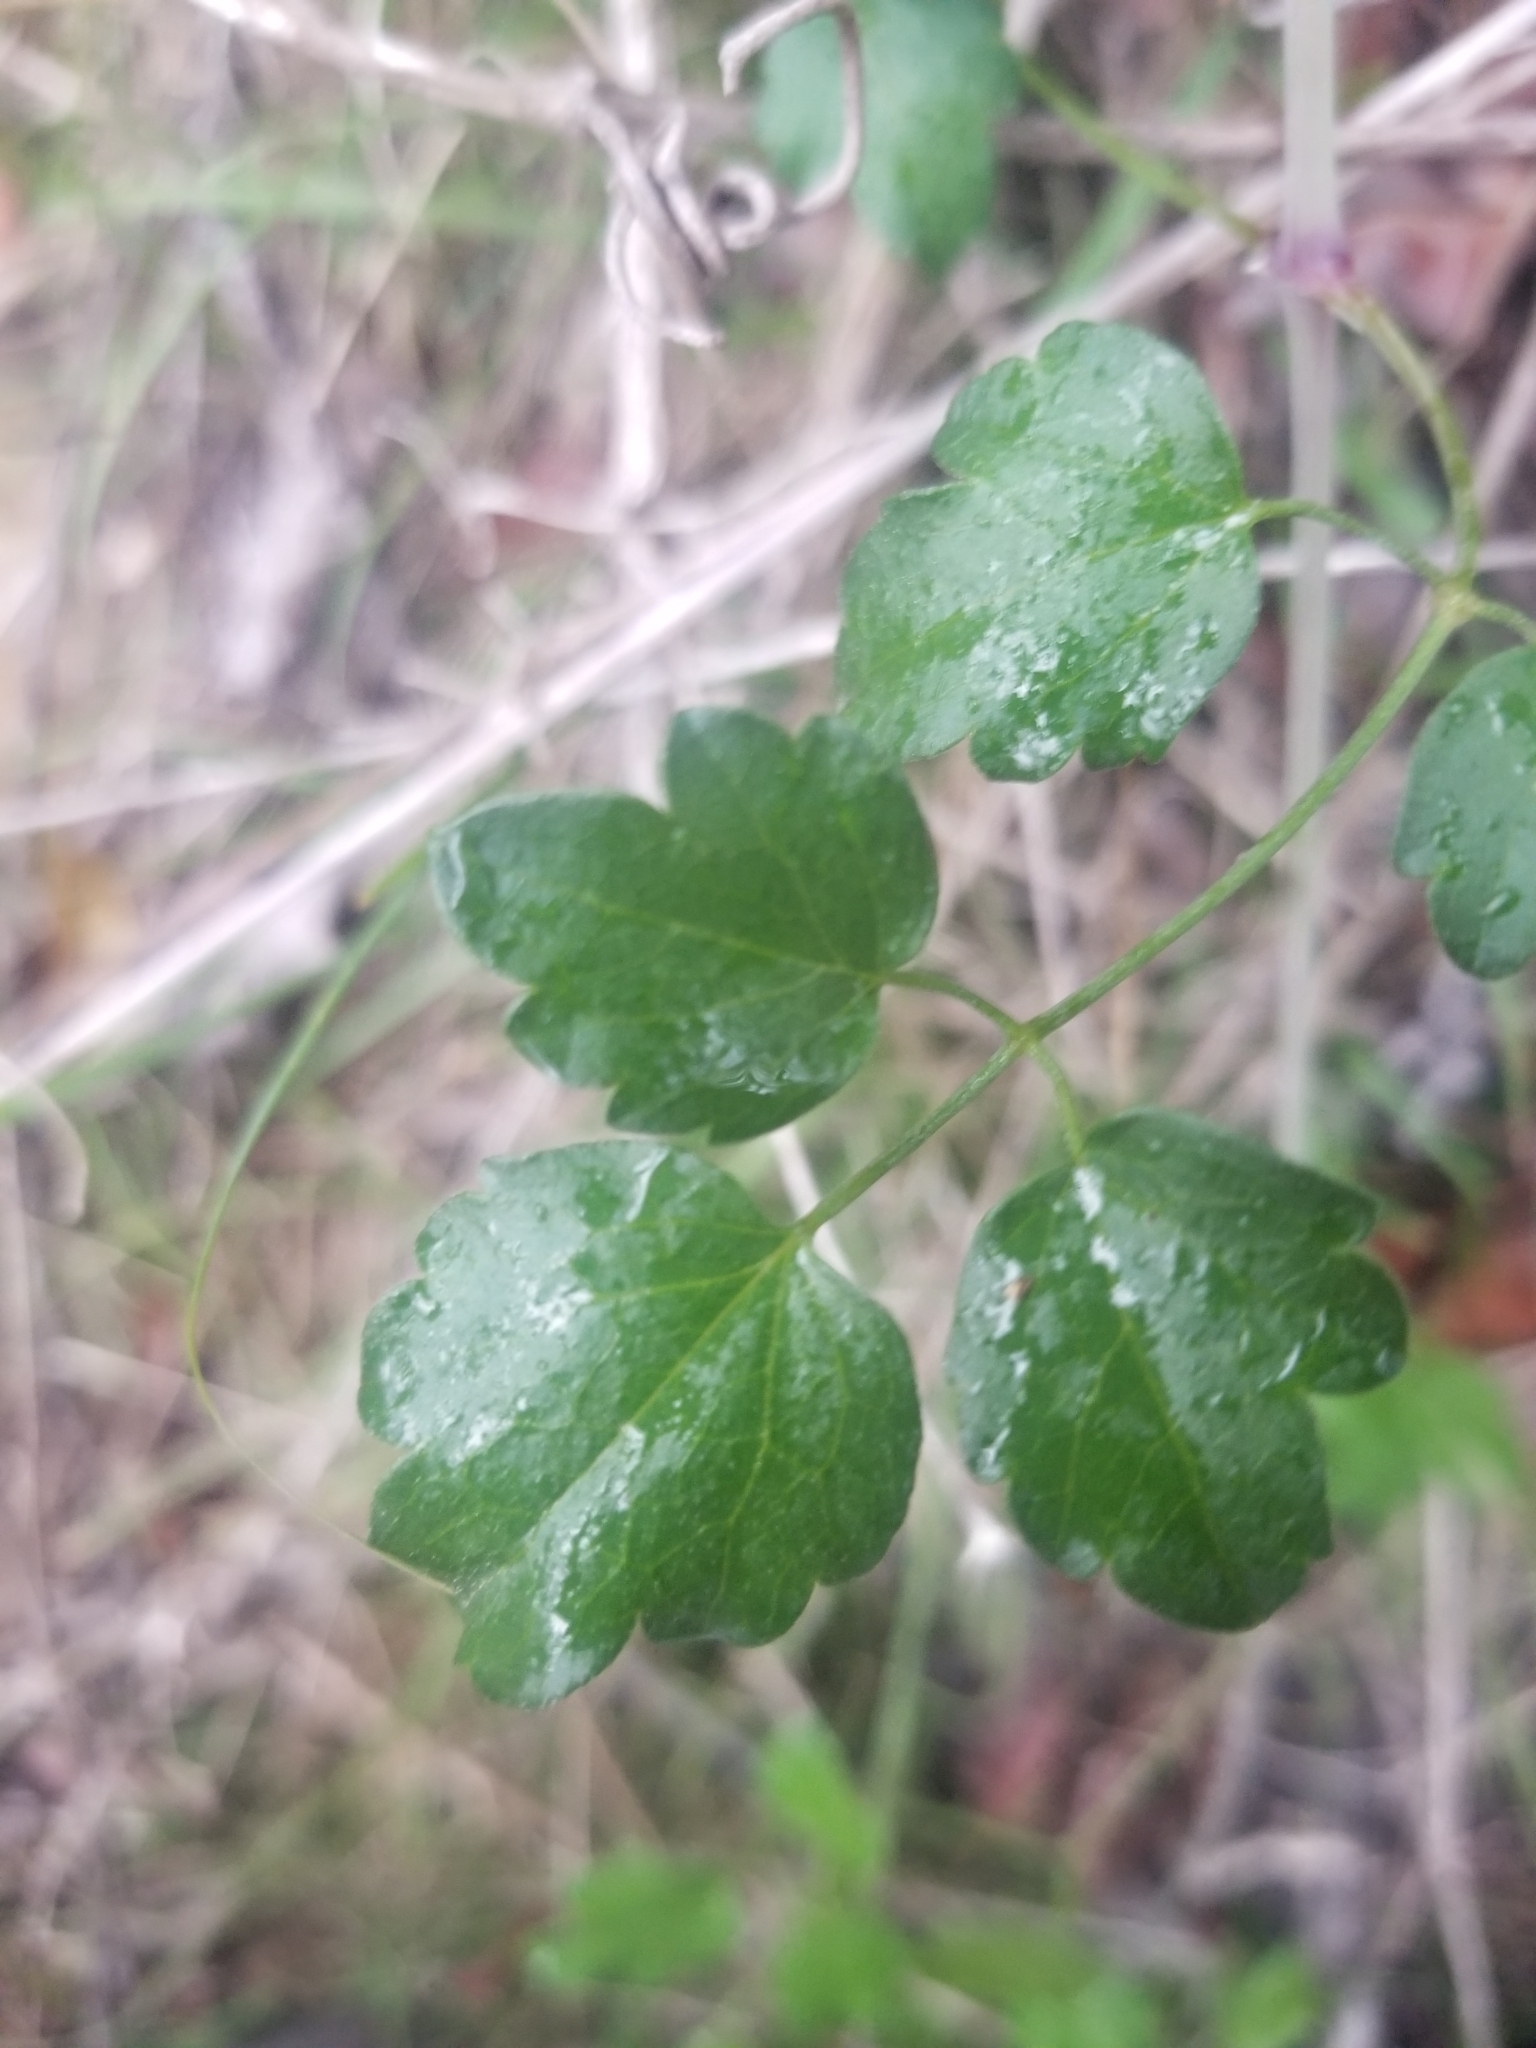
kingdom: Plantae
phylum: Tracheophyta
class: Magnoliopsida
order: Ranunculales
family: Ranunculaceae
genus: Clematis
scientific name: Clematis pauciflora
